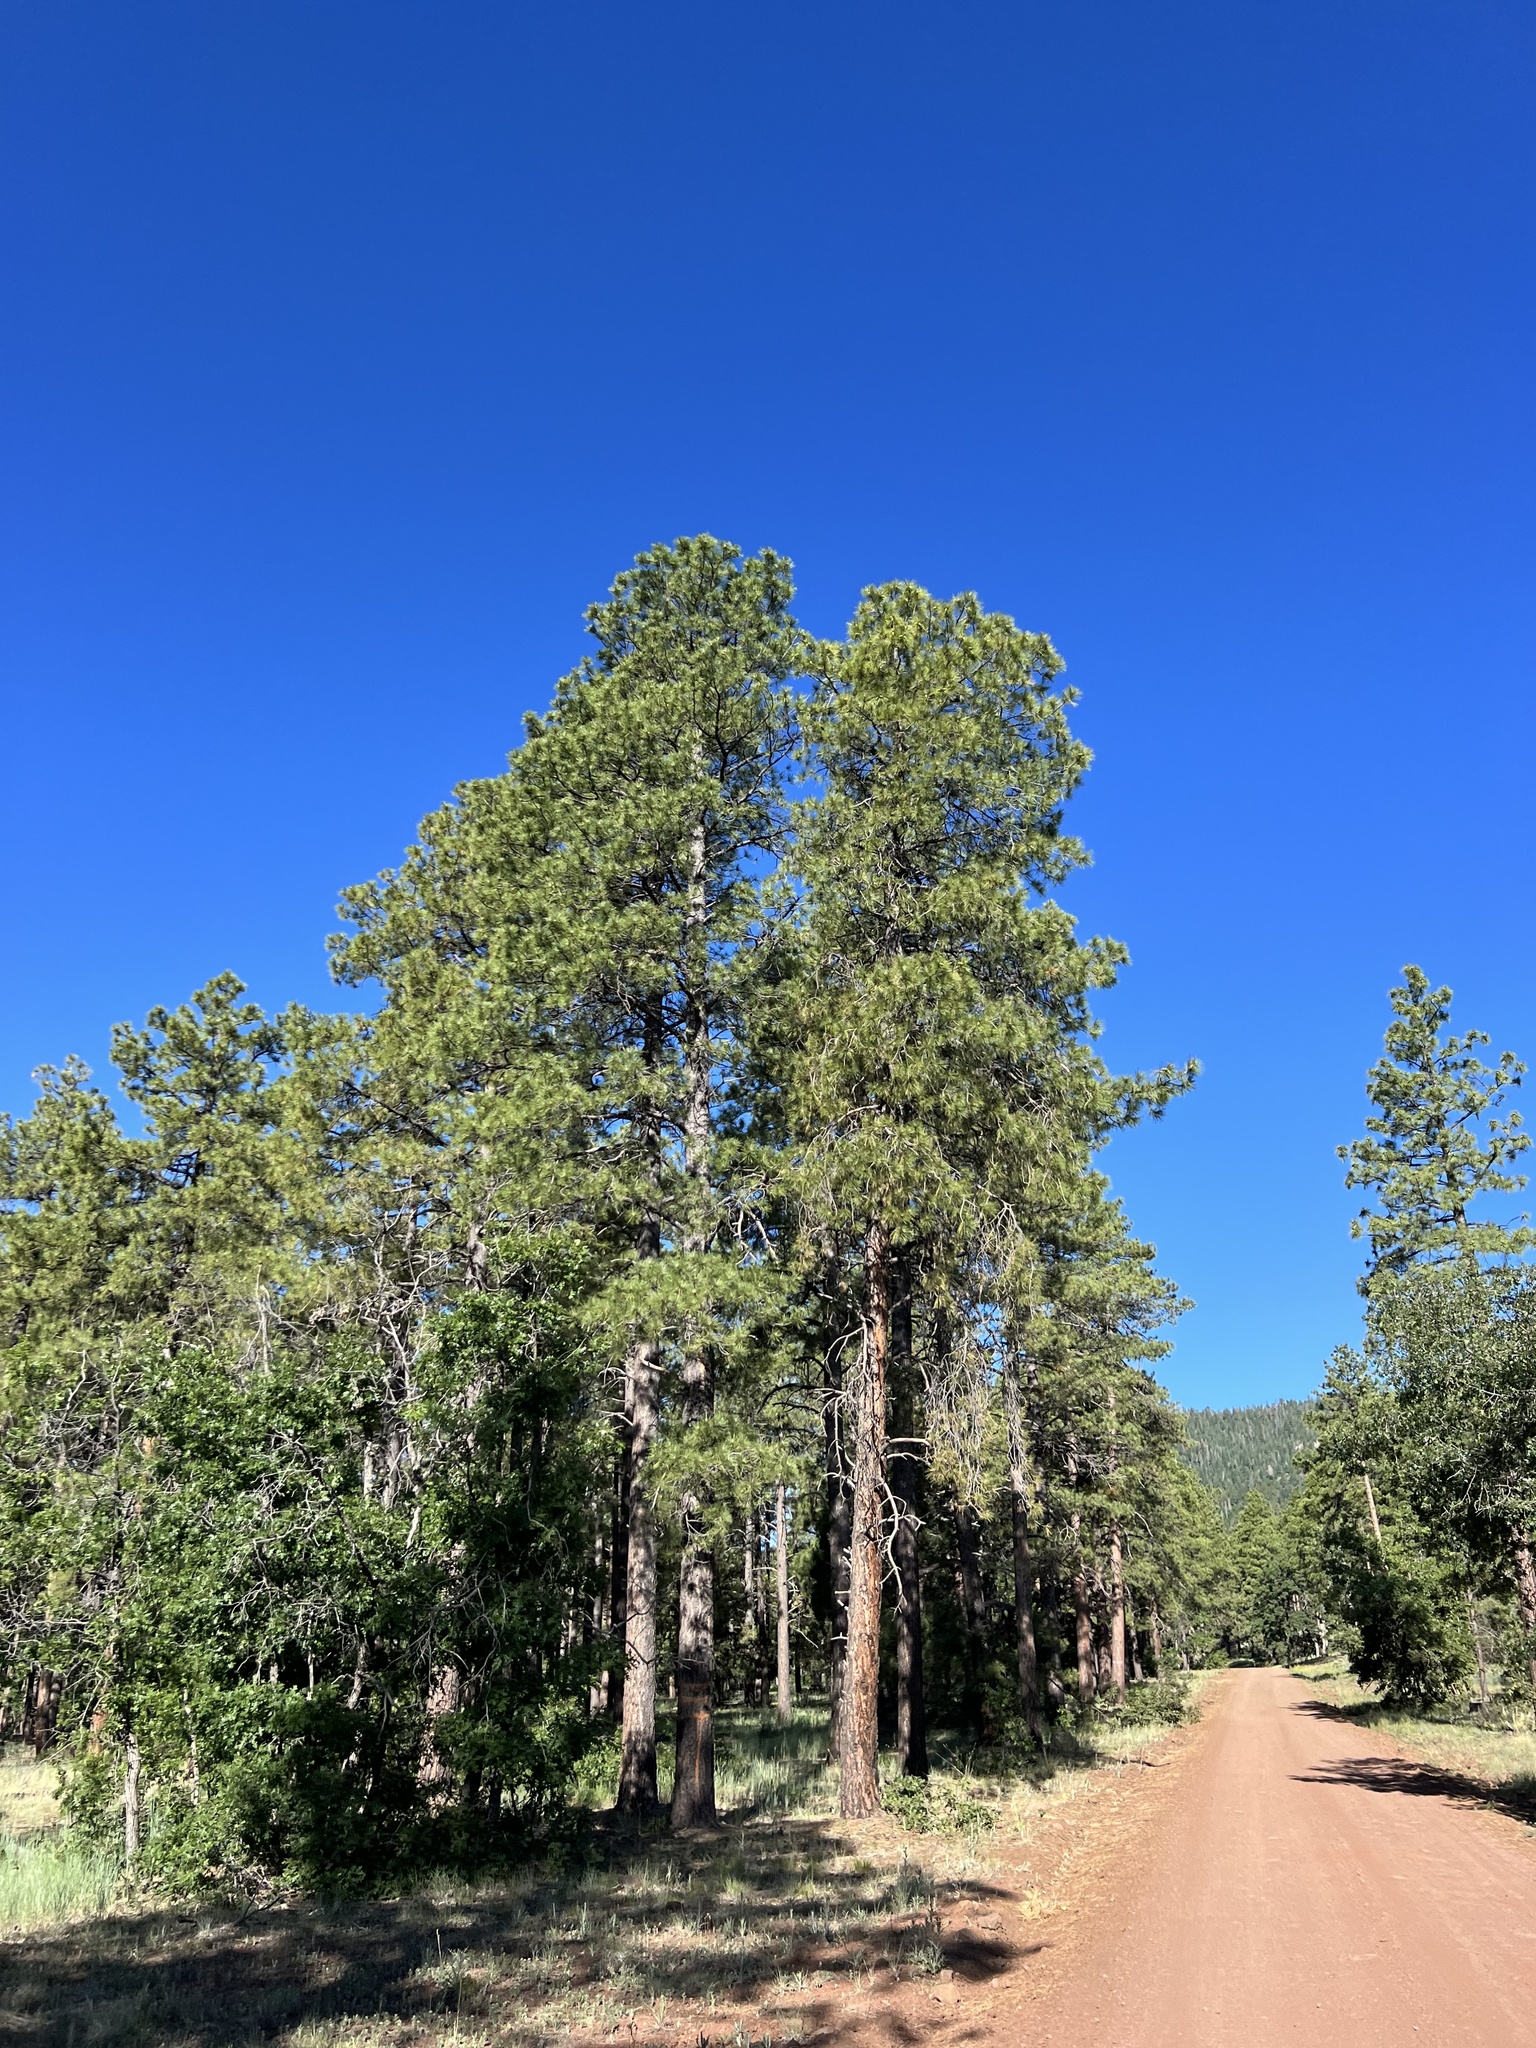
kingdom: Plantae
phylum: Tracheophyta
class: Pinopsida
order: Pinales
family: Pinaceae
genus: Pinus
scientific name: Pinus ponderosa
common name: Western yellow-pine
